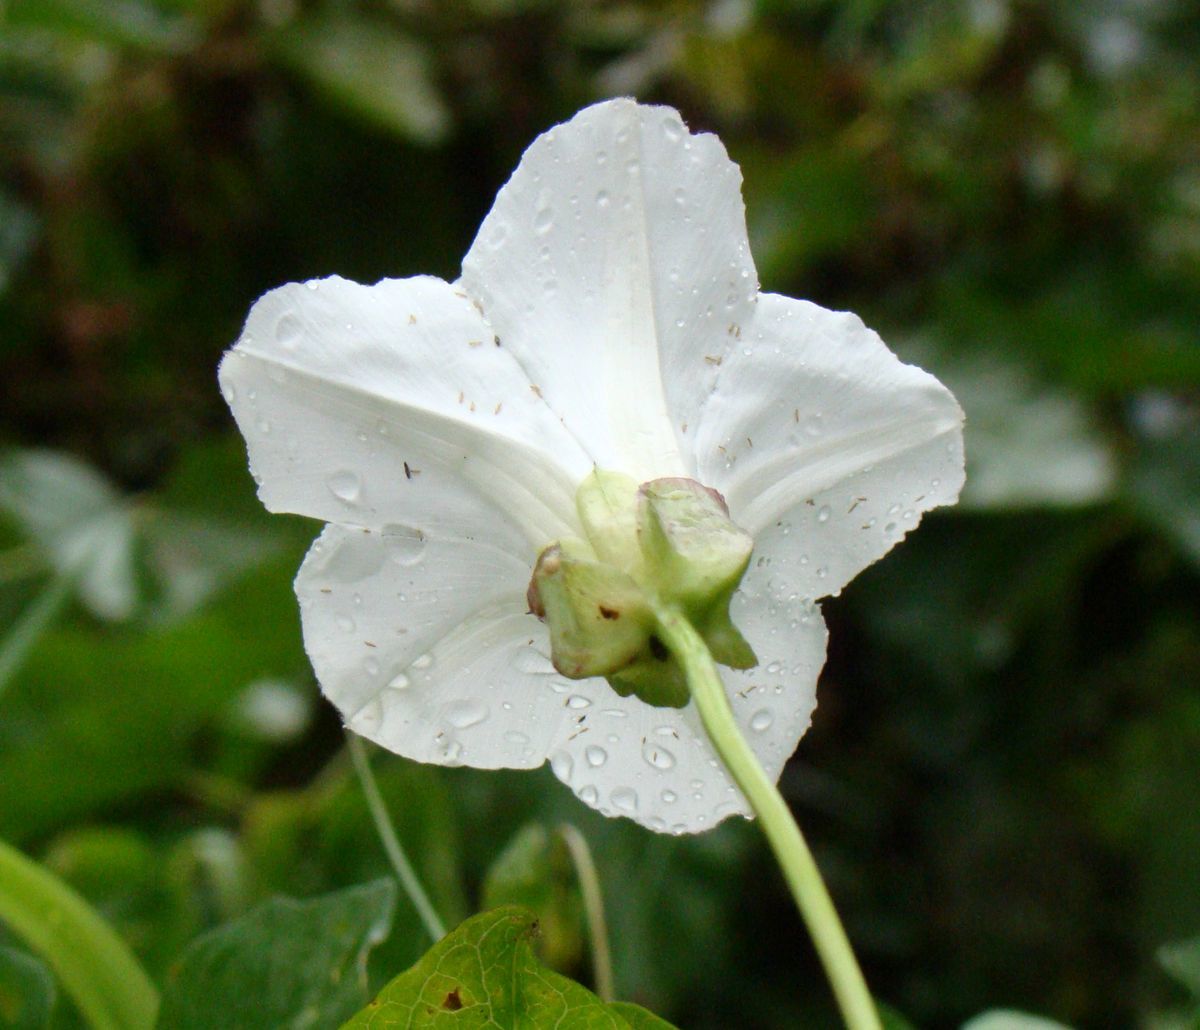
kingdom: Plantae
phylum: Tracheophyta
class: Magnoliopsida
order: Solanales
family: Convolvulaceae
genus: Calystegia
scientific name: Calystegia sepium
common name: Hedge bindweed
